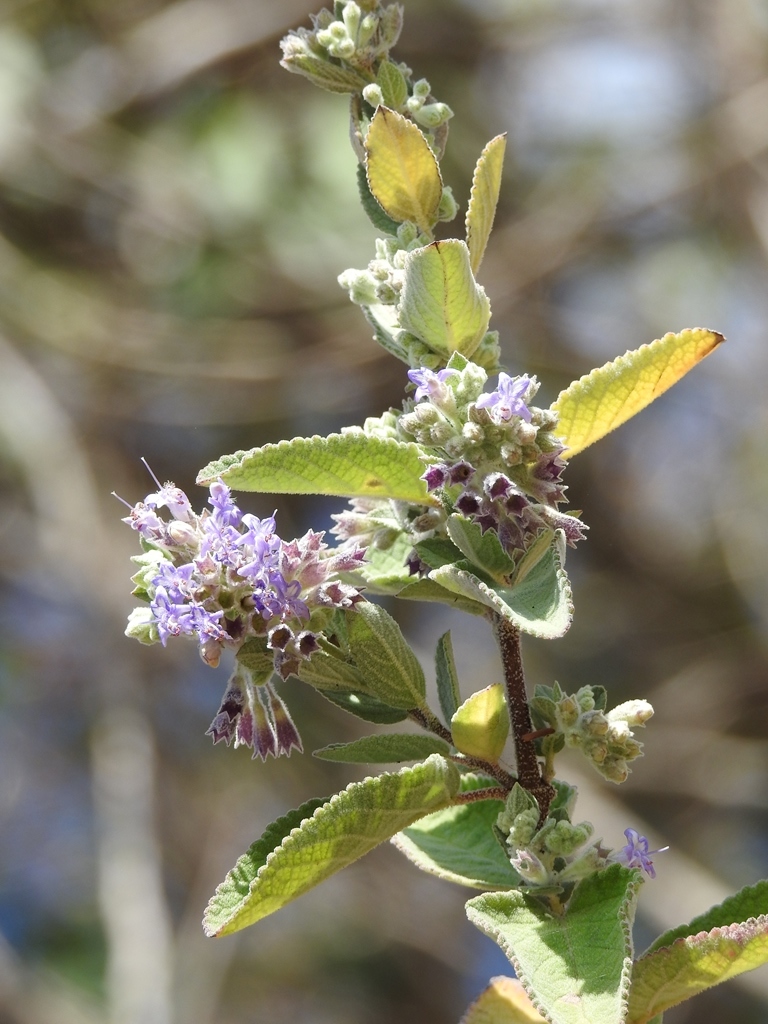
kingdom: Plantae
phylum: Tracheophyta
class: Magnoliopsida
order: Lamiales
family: Lamiaceae
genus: Condea
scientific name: Condea tomentosa
